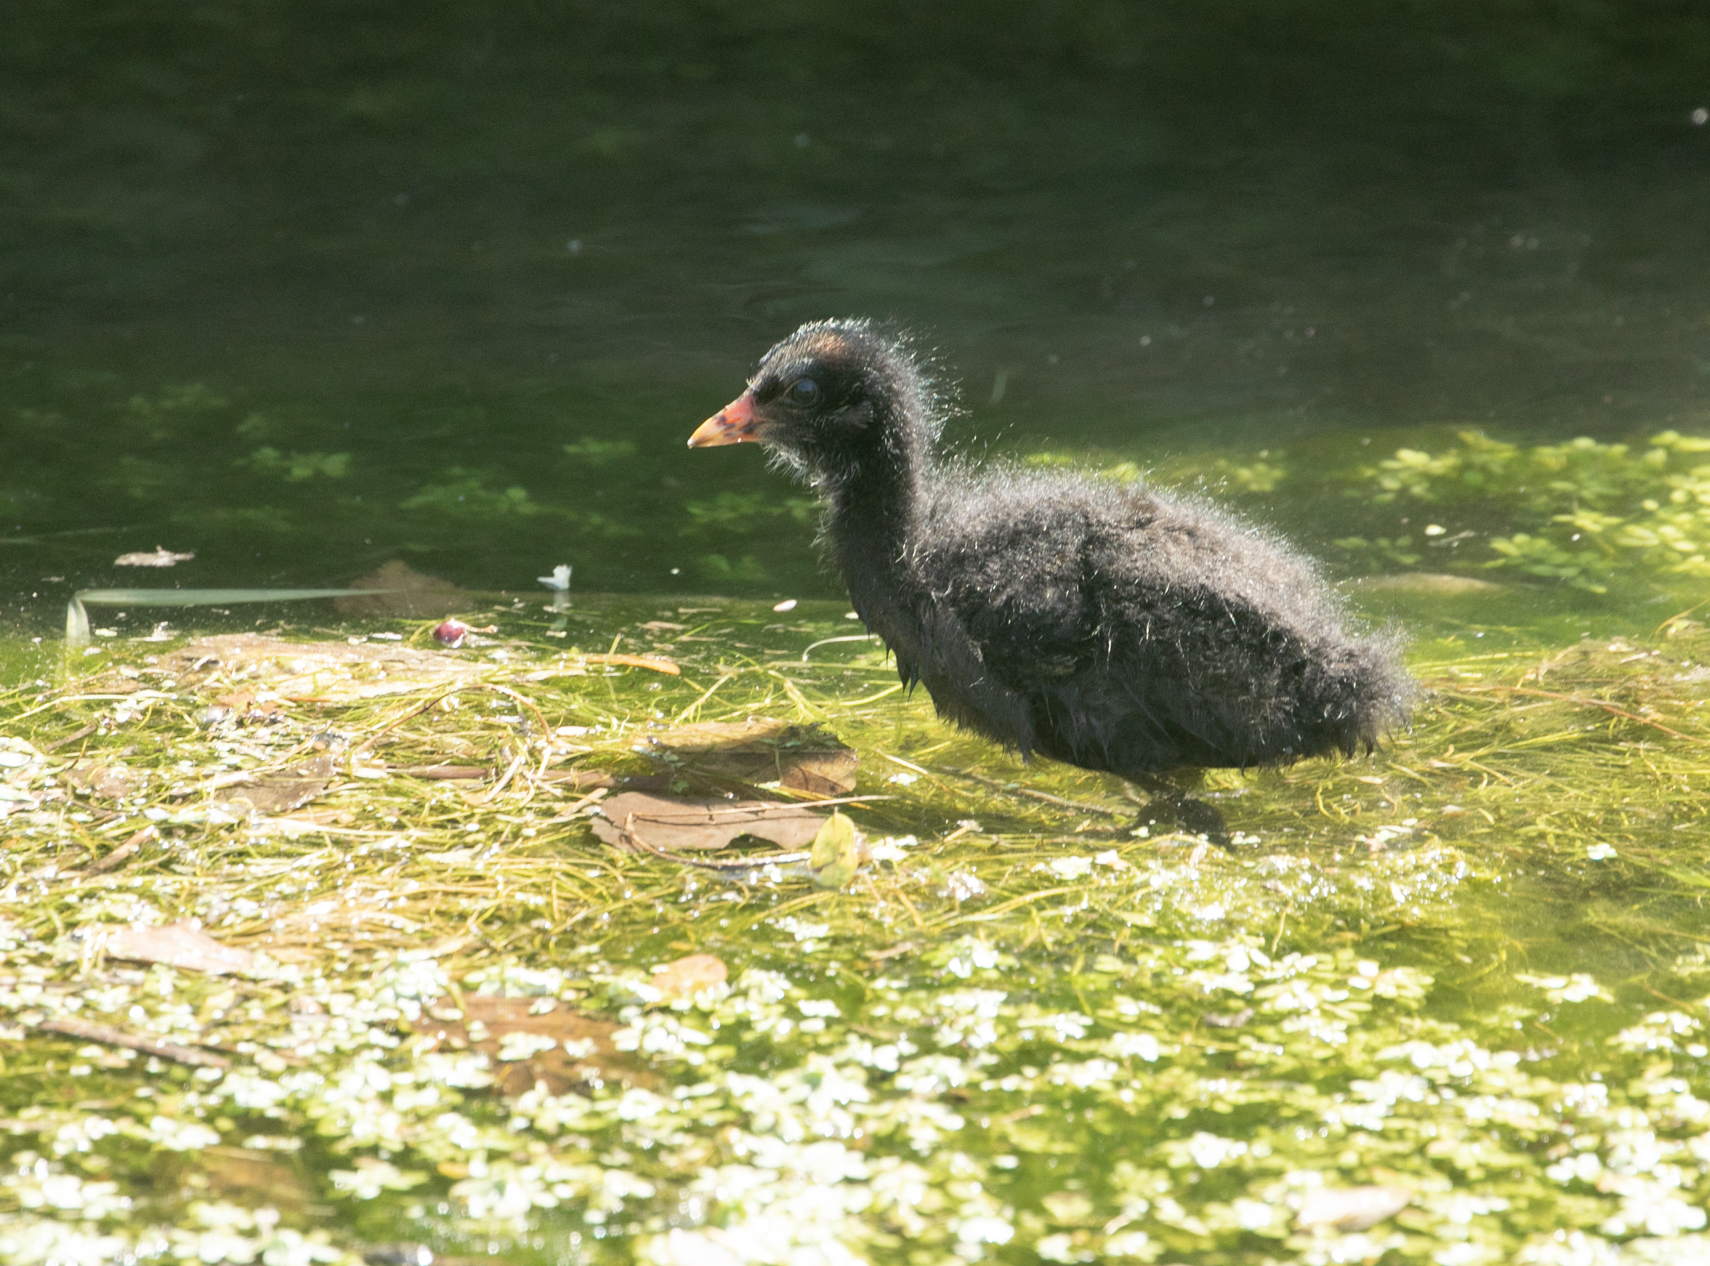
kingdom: Animalia
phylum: Chordata
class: Aves
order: Gruiformes
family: Rallidae
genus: Gallinula
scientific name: Gallinula chloropus
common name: Common moorhen
